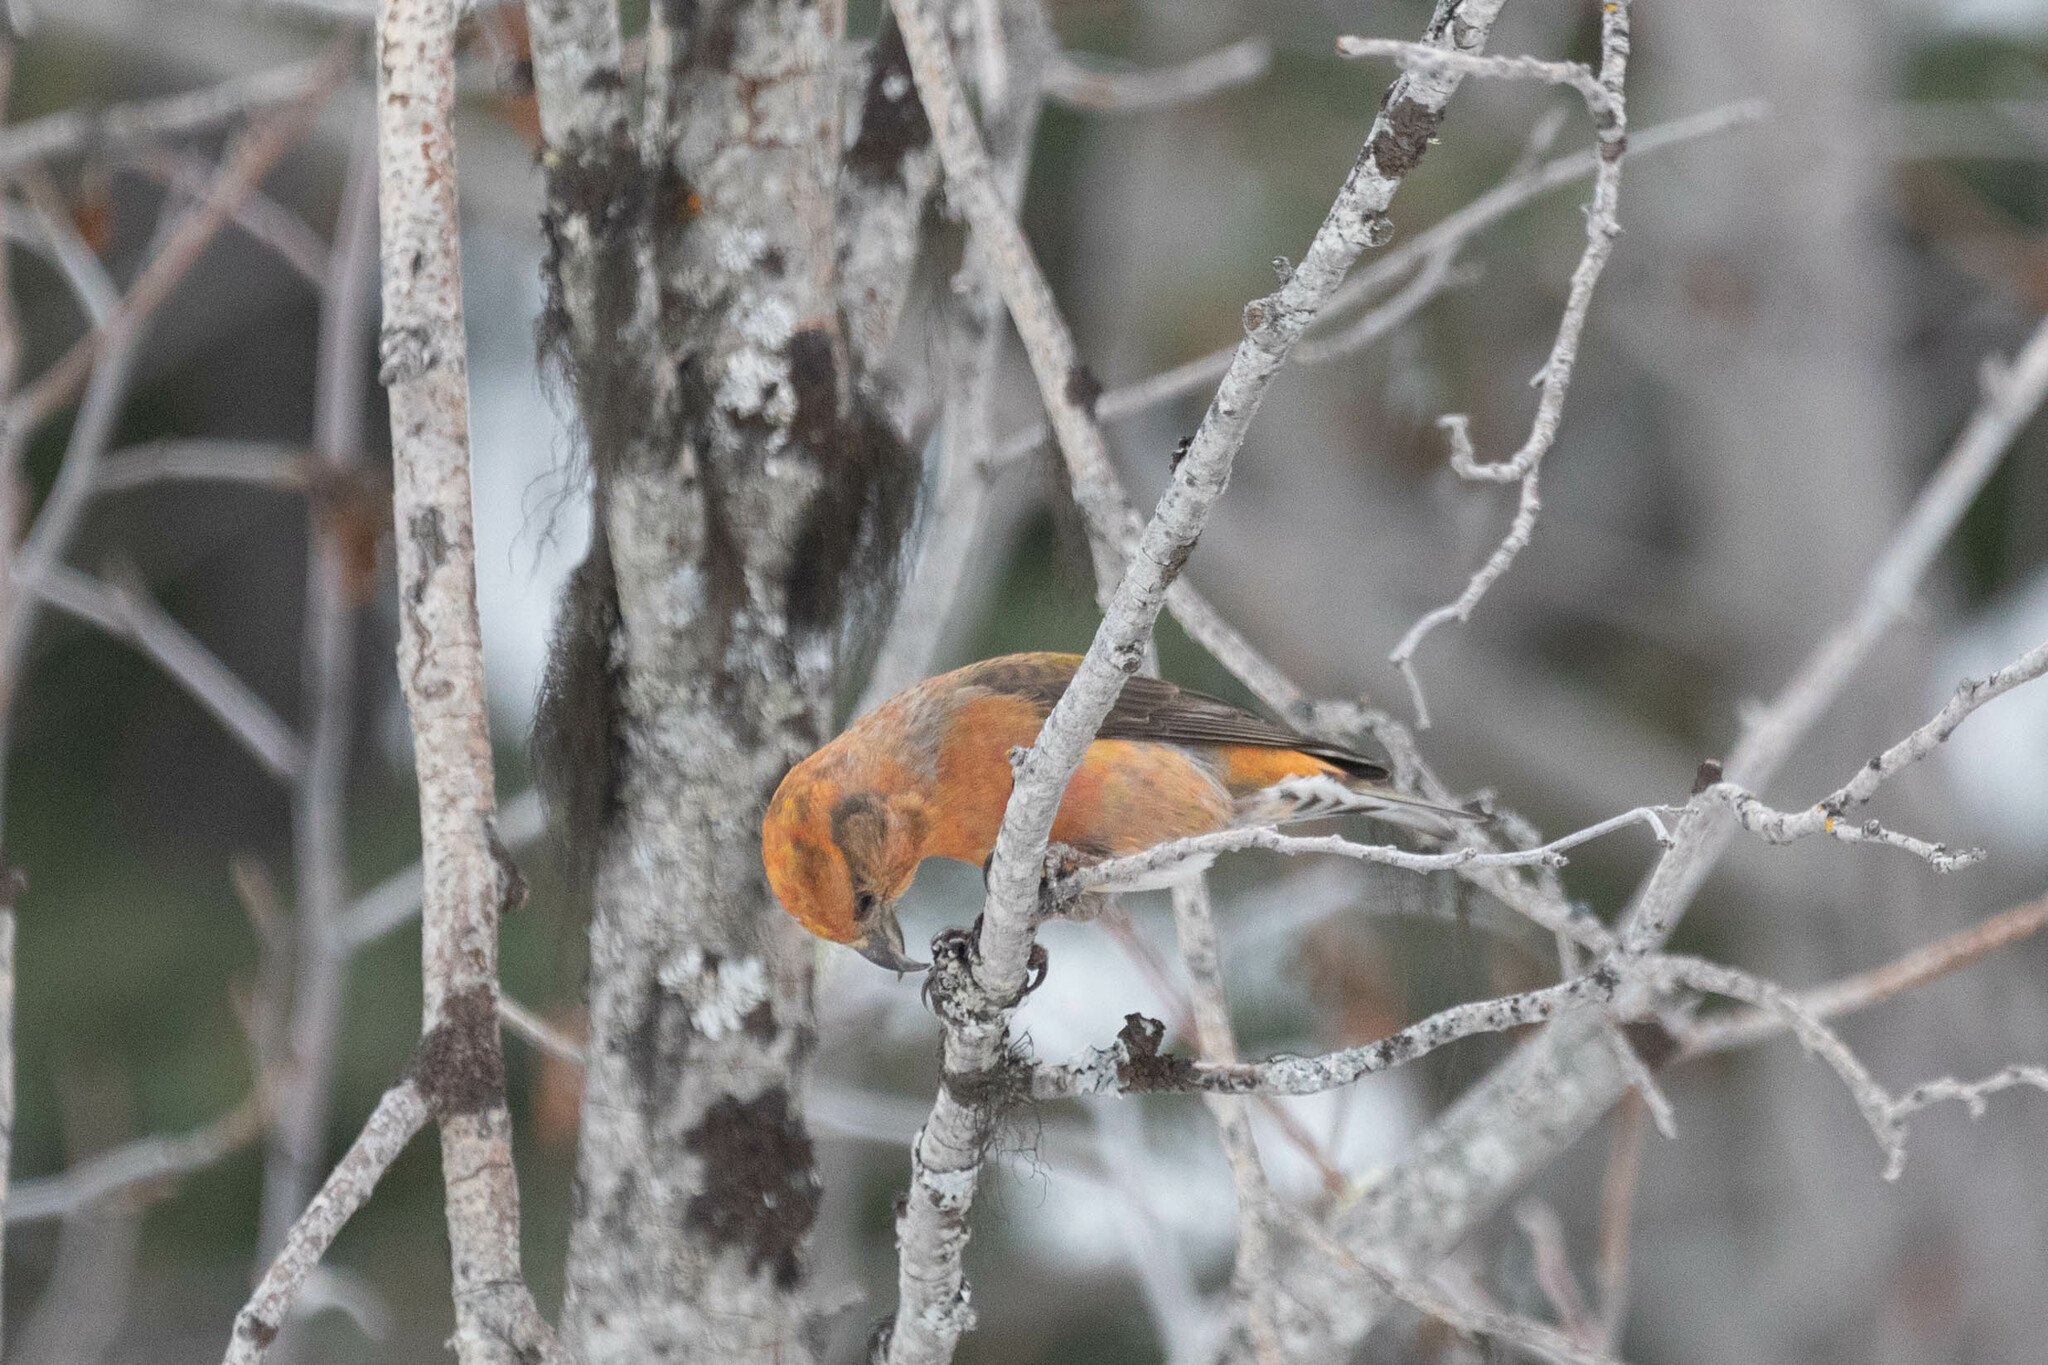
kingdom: Animalia
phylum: Chordata
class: Aves
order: Passeriformes
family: Fringillidae
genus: Loxia
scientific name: Loxia curvirostra
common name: Red crossbill
